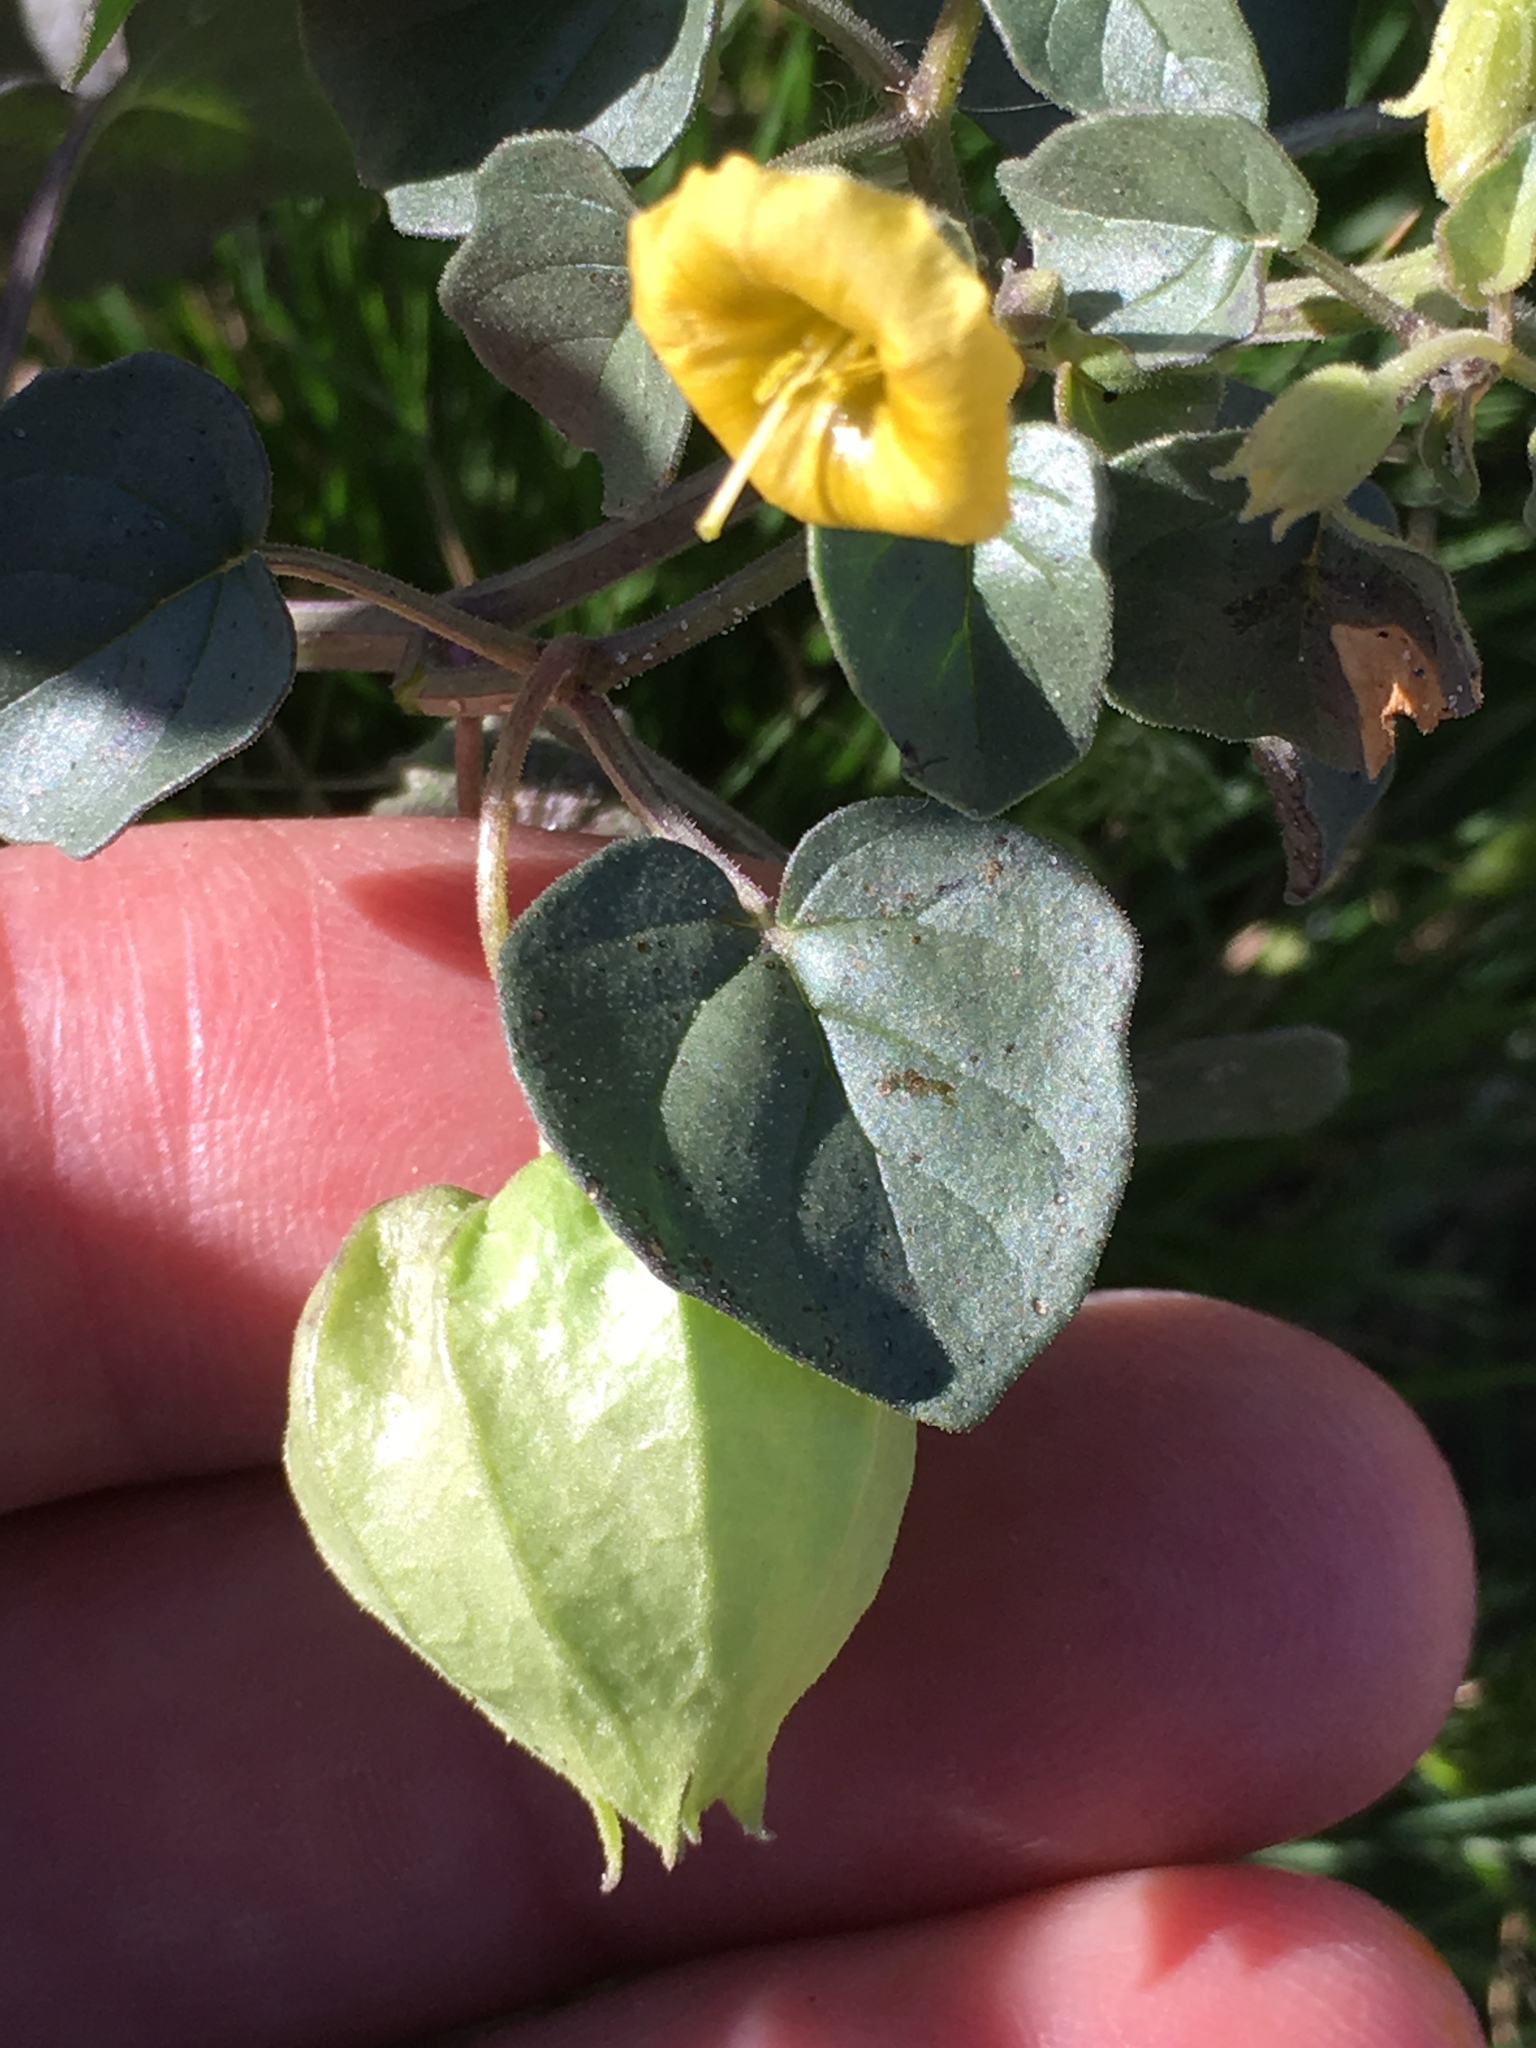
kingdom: Plantae
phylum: Tracheophyta
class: Magnoliopsida
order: Solanales
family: Solanaceae
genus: Physalis
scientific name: Physalis crassifolia
